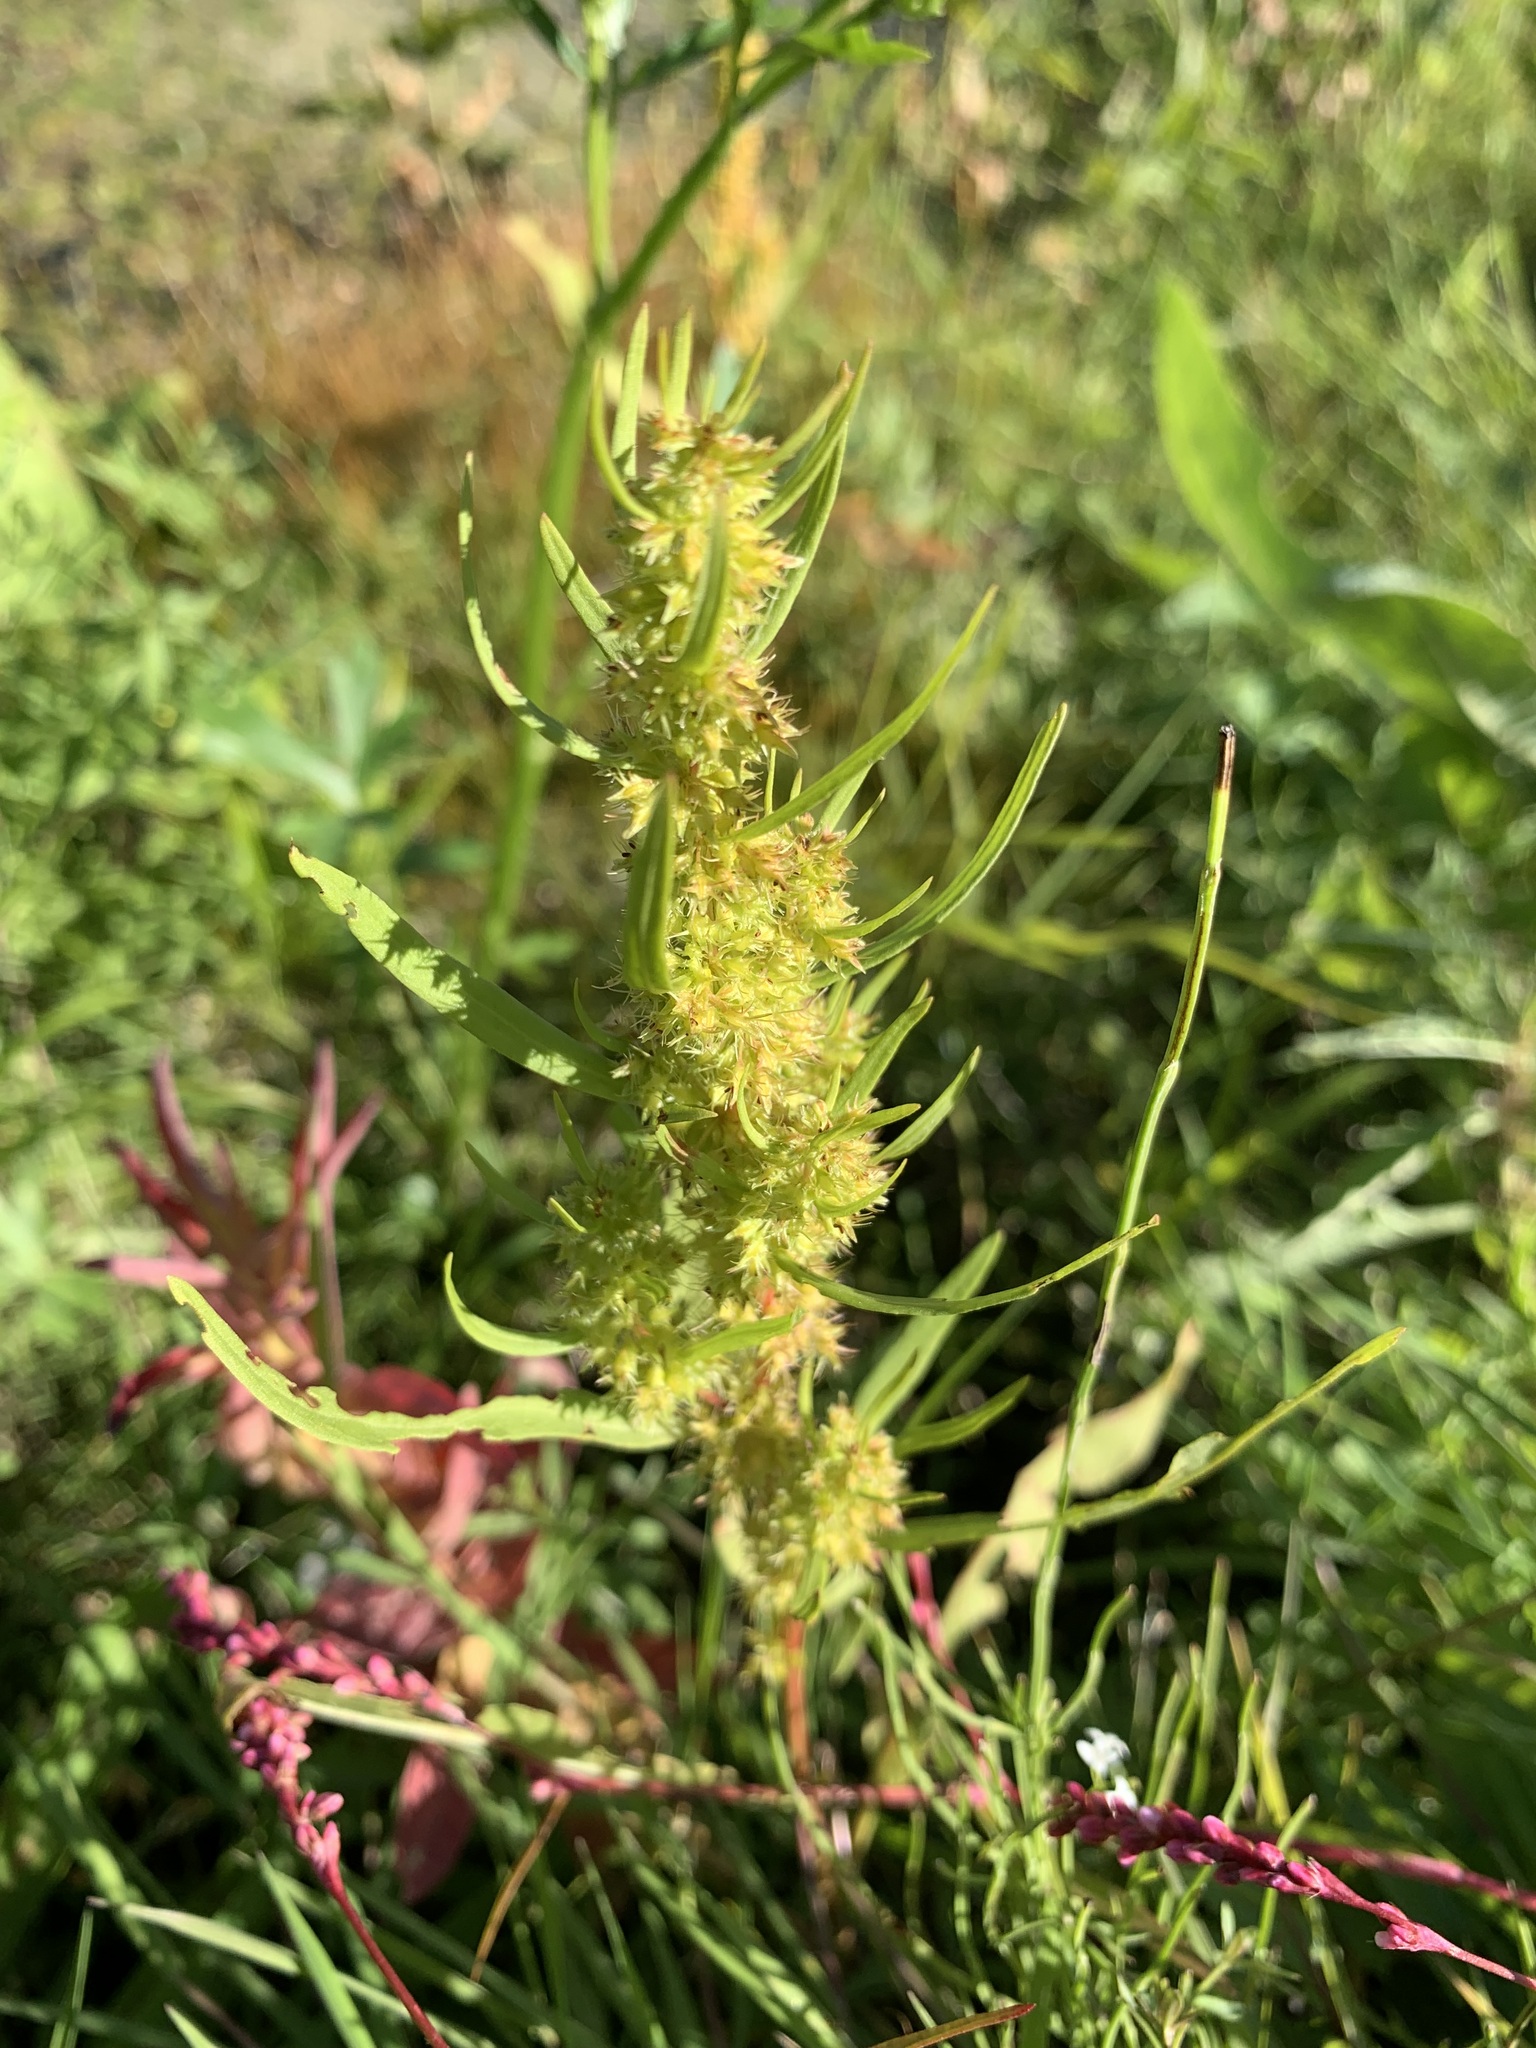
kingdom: Plantae
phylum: Tracheophyta
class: Magnoliopsida
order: Caryophyllales
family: Polygonaceae
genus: Rumex
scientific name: Rumex maritimus
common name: Golden dock
